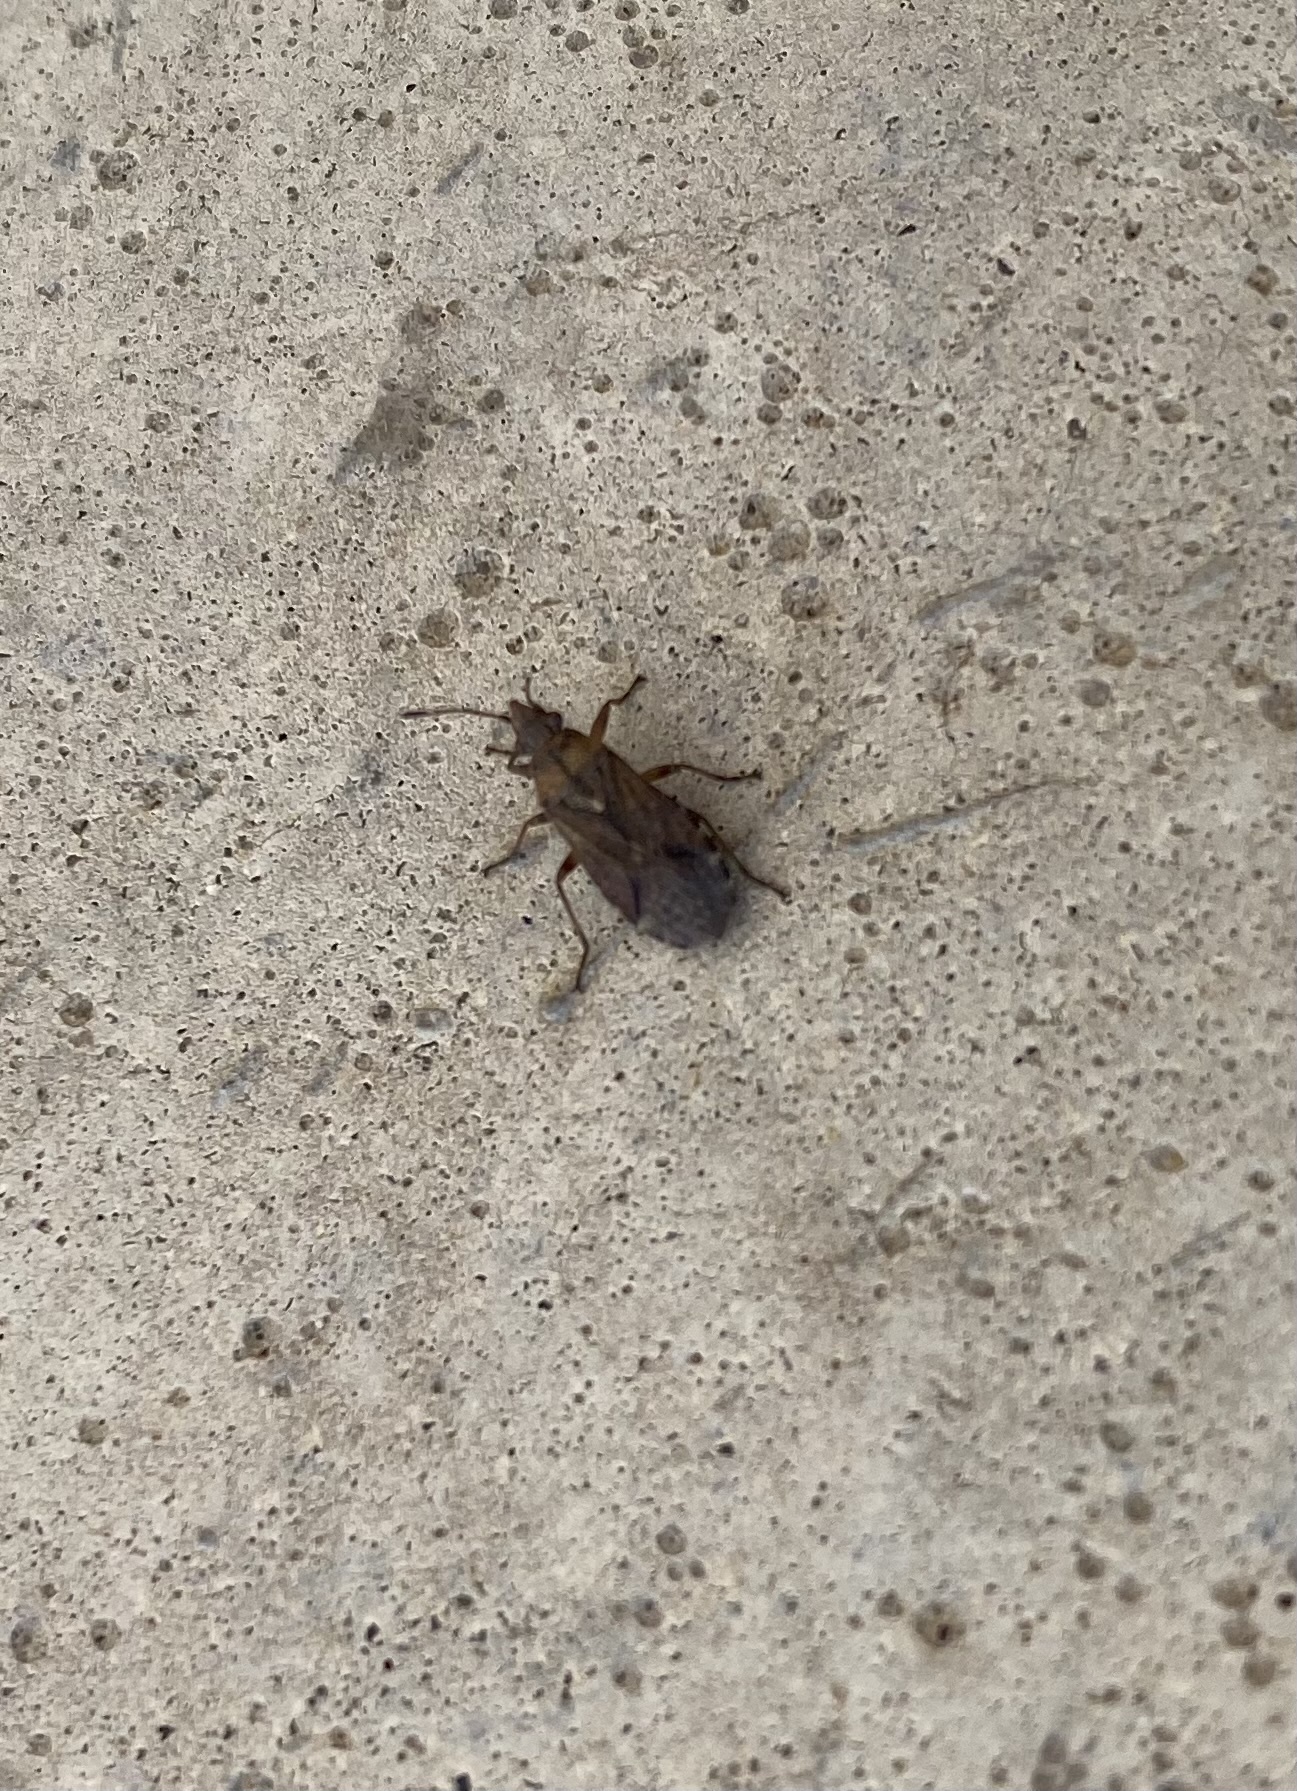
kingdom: Animalia
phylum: Arthropoda
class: Insecta
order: Hemiptera
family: Lygaeidae
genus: Orsillus
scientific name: Orsillus depressus
